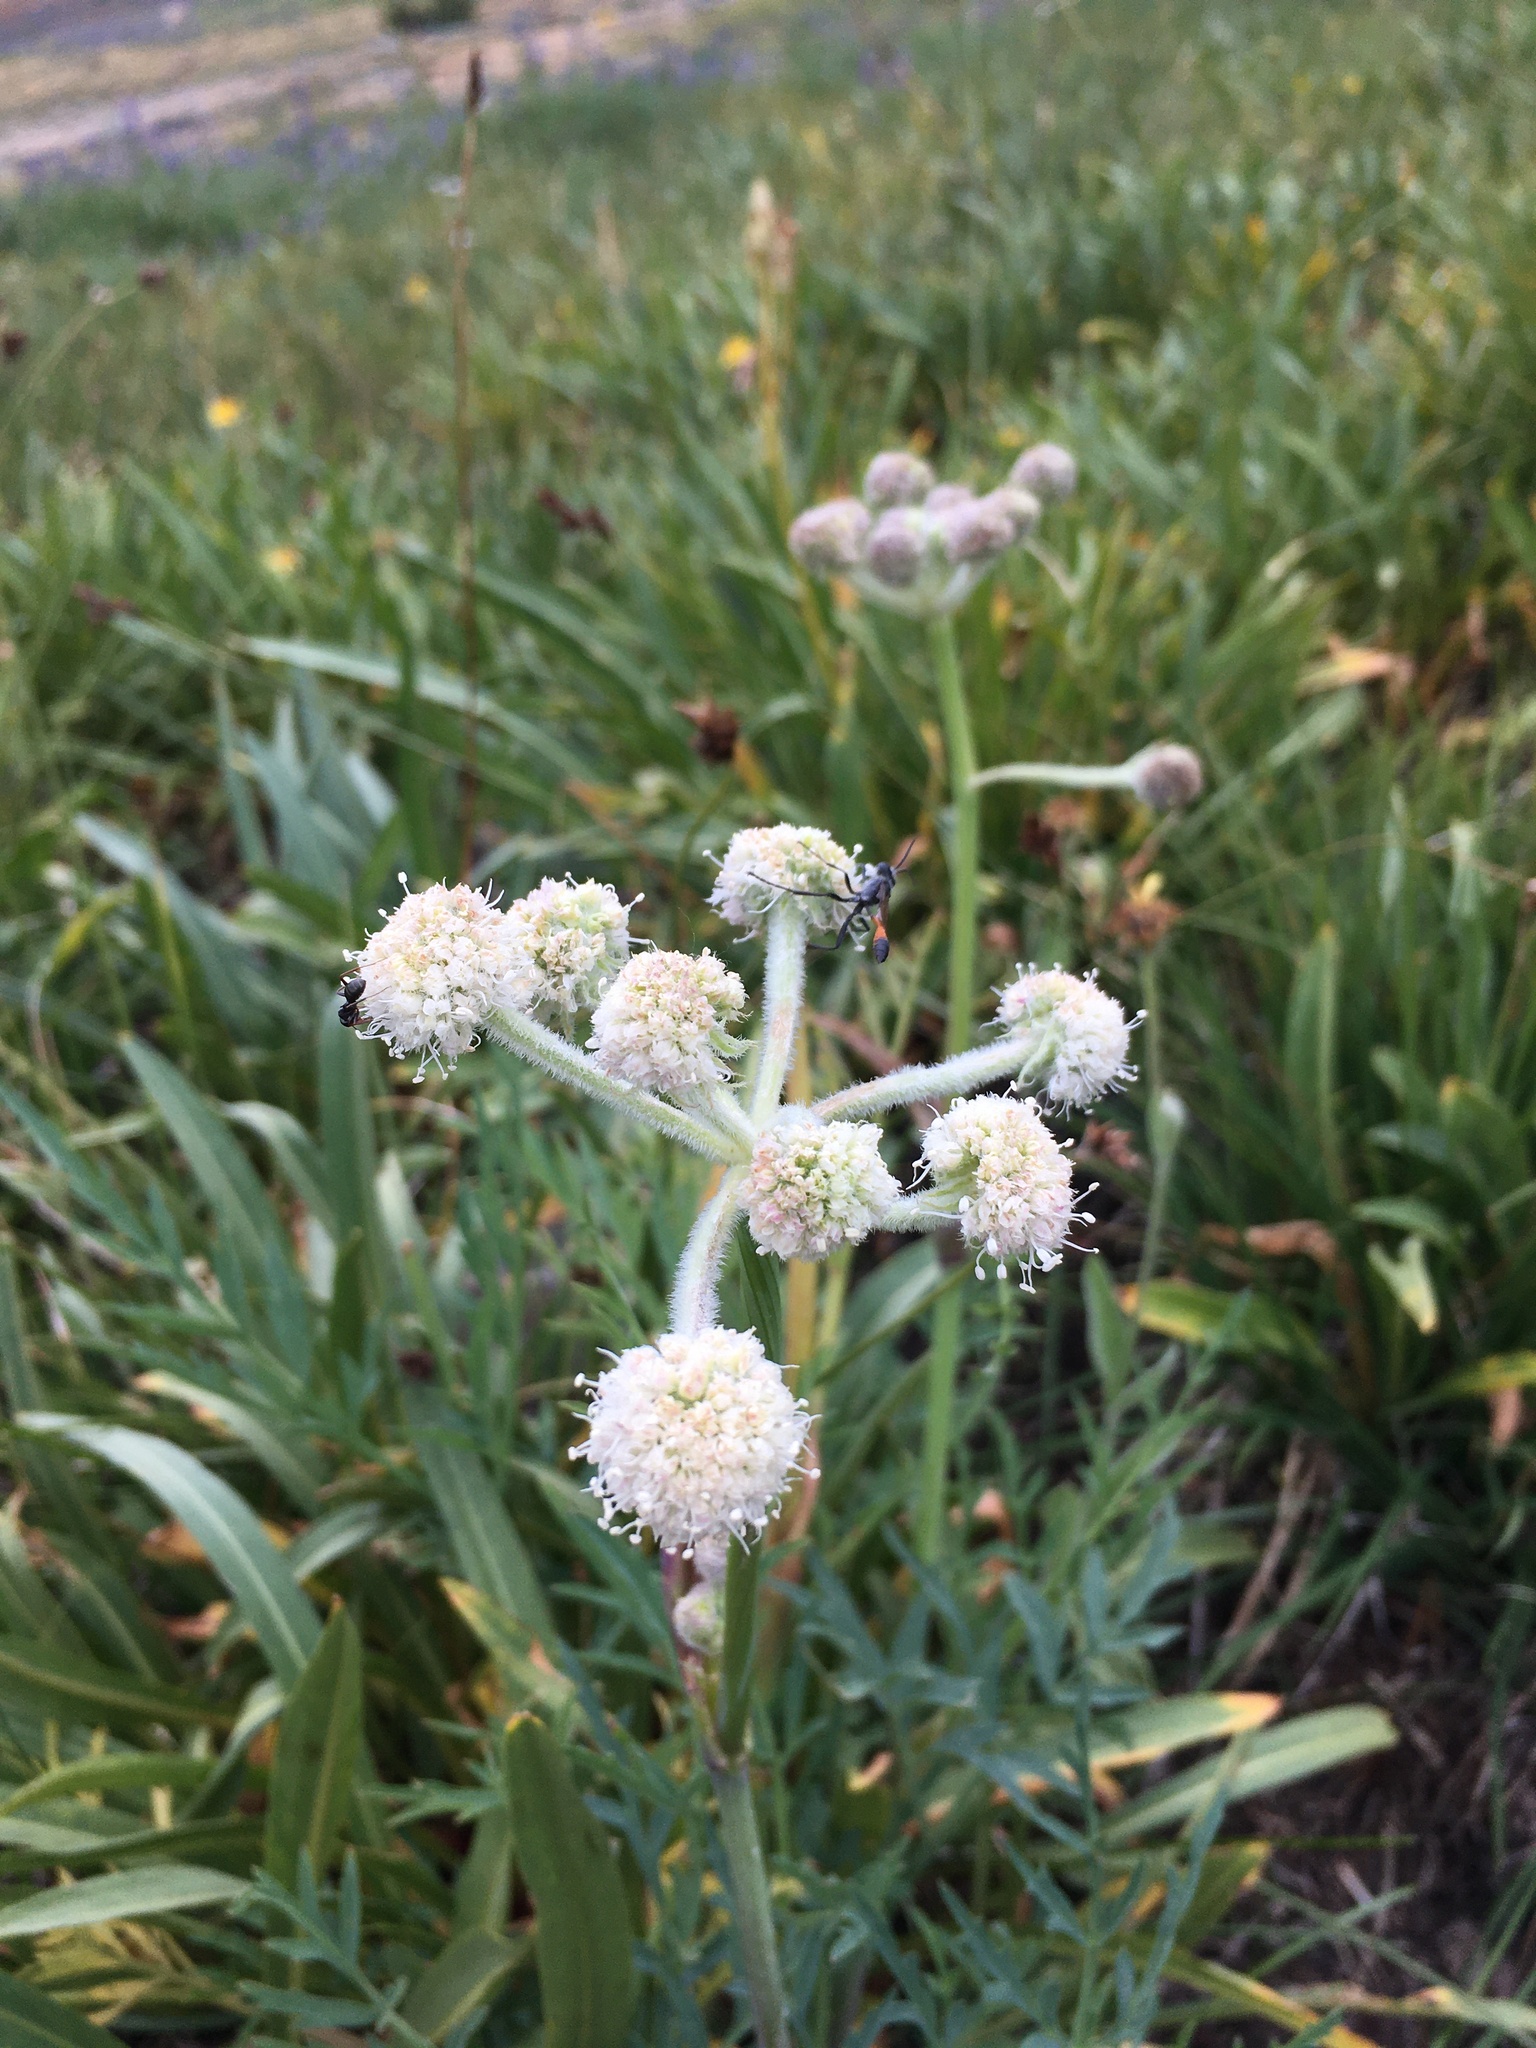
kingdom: Plantae
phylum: Tracheophyta
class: Magnoliopsida
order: Apiales
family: Apiaceae
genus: Angelica
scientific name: Angelica capitellata
